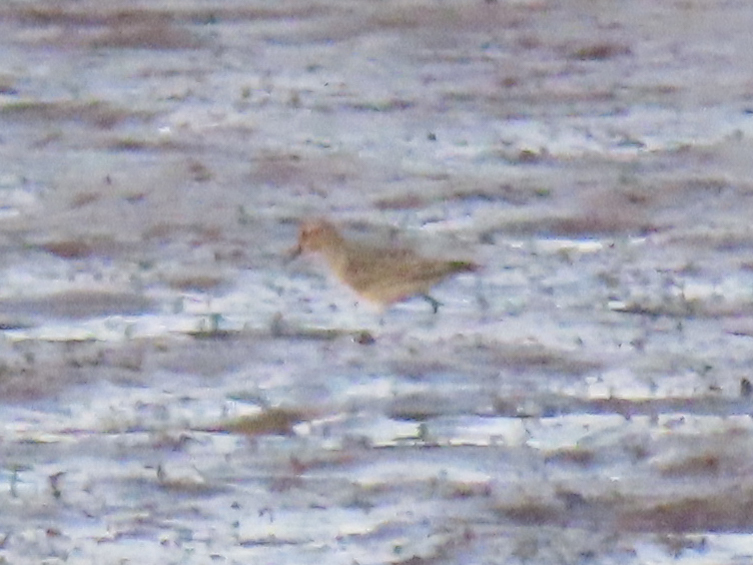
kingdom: Animalia
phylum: Chordata
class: Aves
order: Charadriiformes
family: Scolopacidae
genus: Calidris
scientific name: Calidris bairdii
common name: Baird's sandpiper
